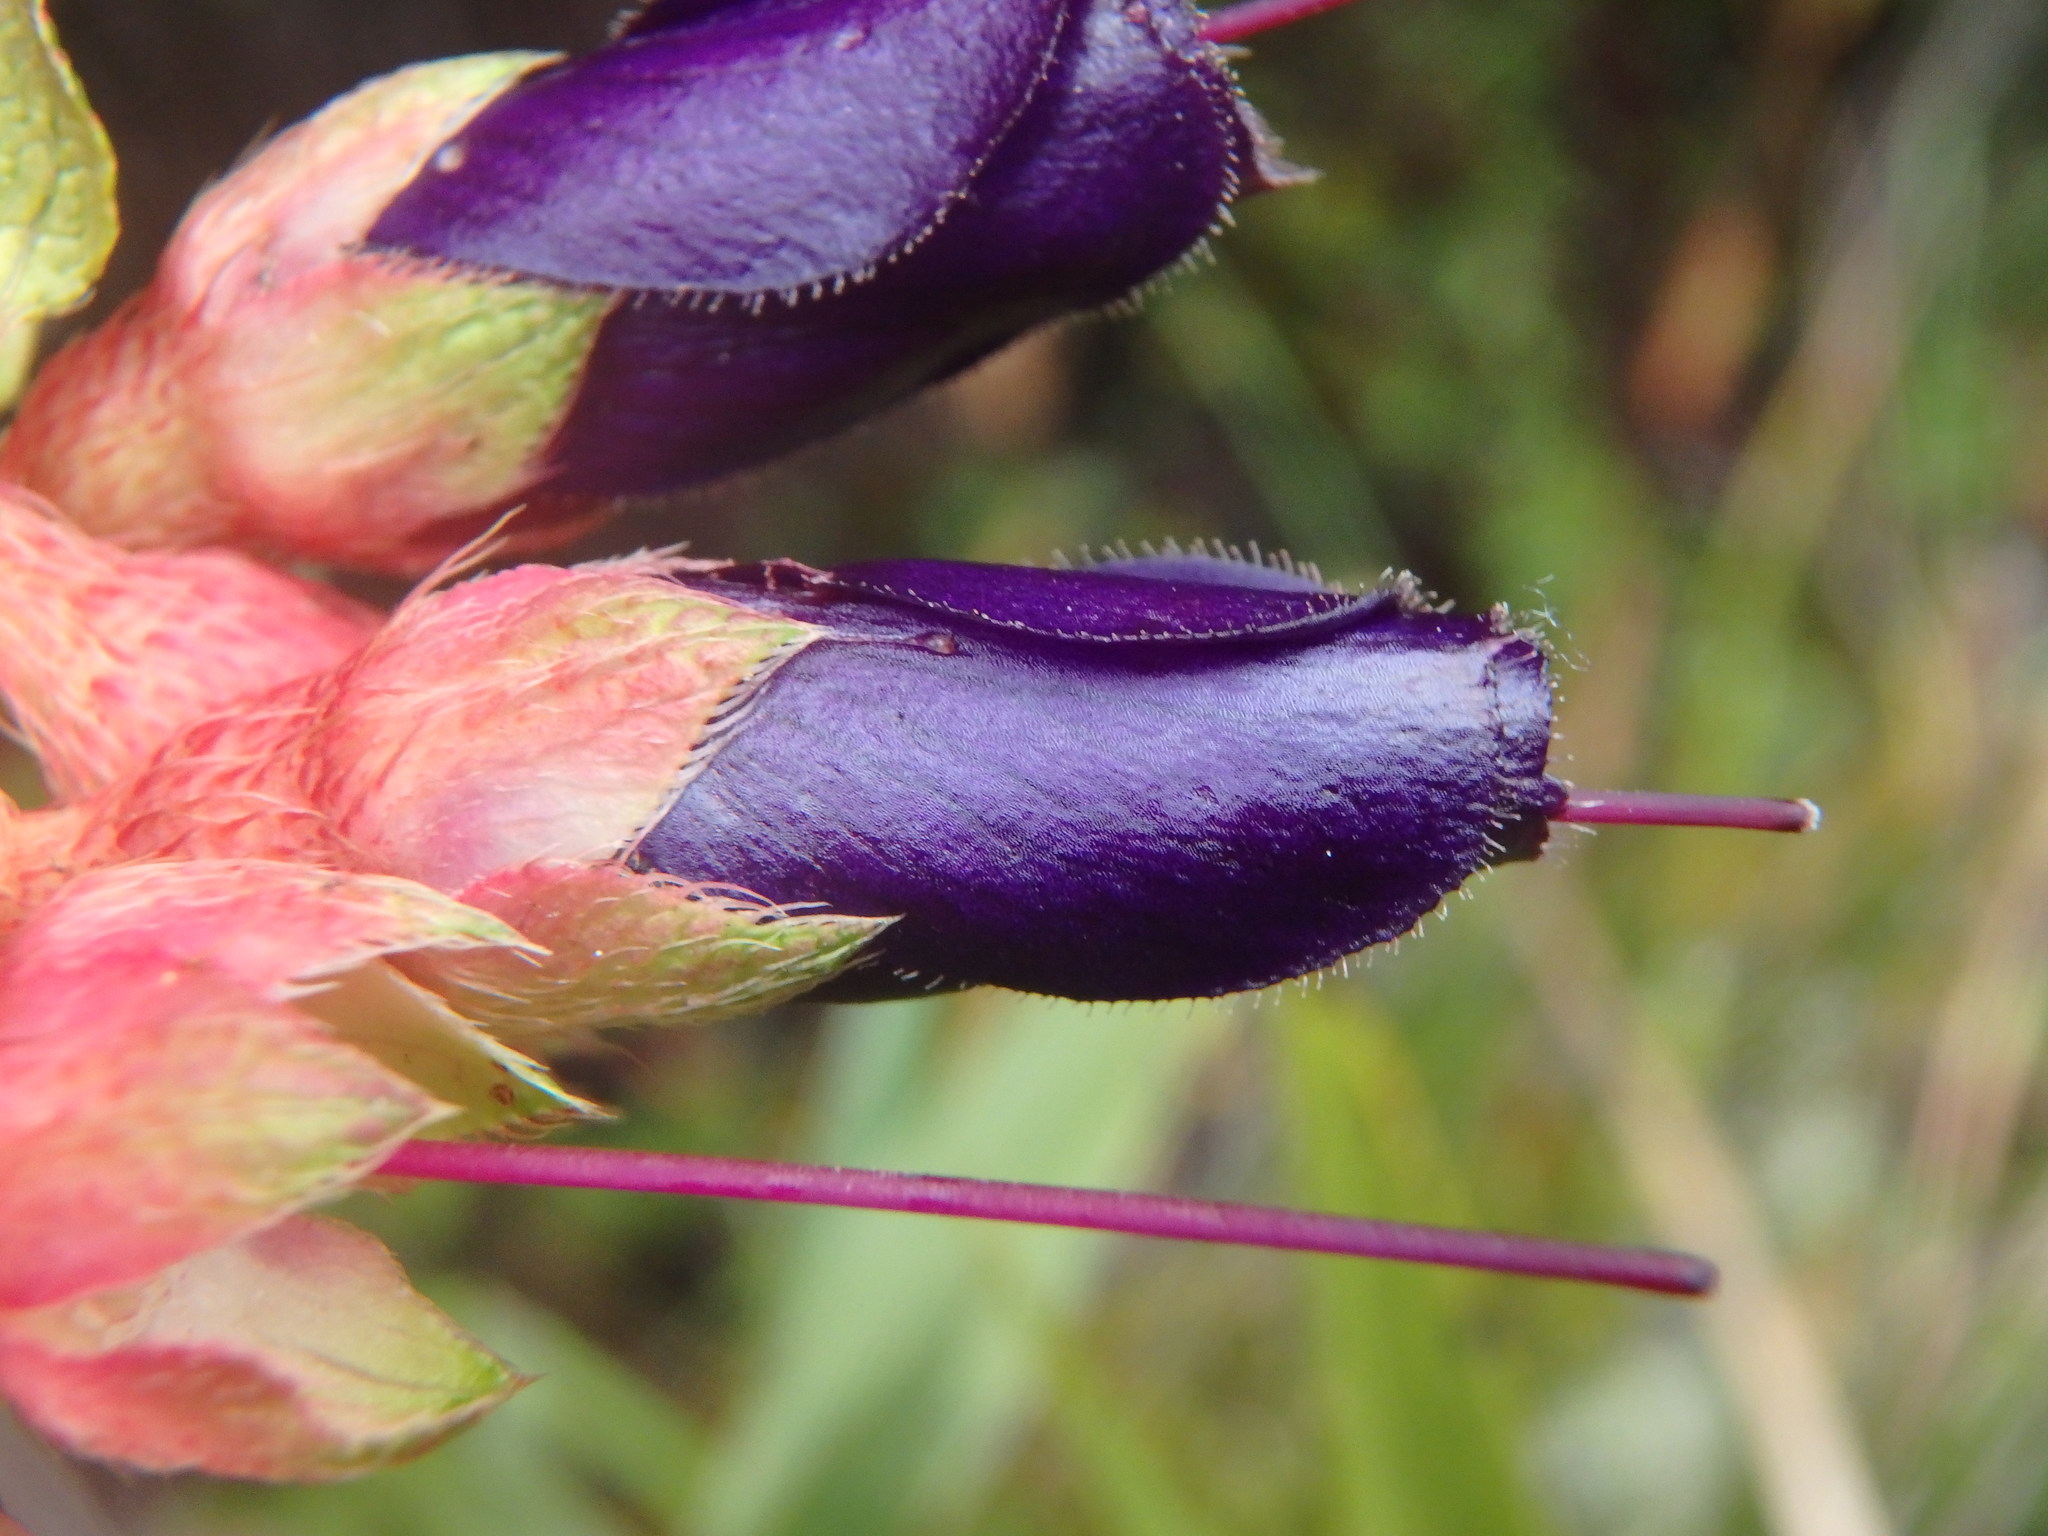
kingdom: Plantae
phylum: Tracheophyta
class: Magnoliopsida
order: Myrtales
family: Melastomataceae
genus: Brachyotum
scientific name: Brachyotum strigosum
